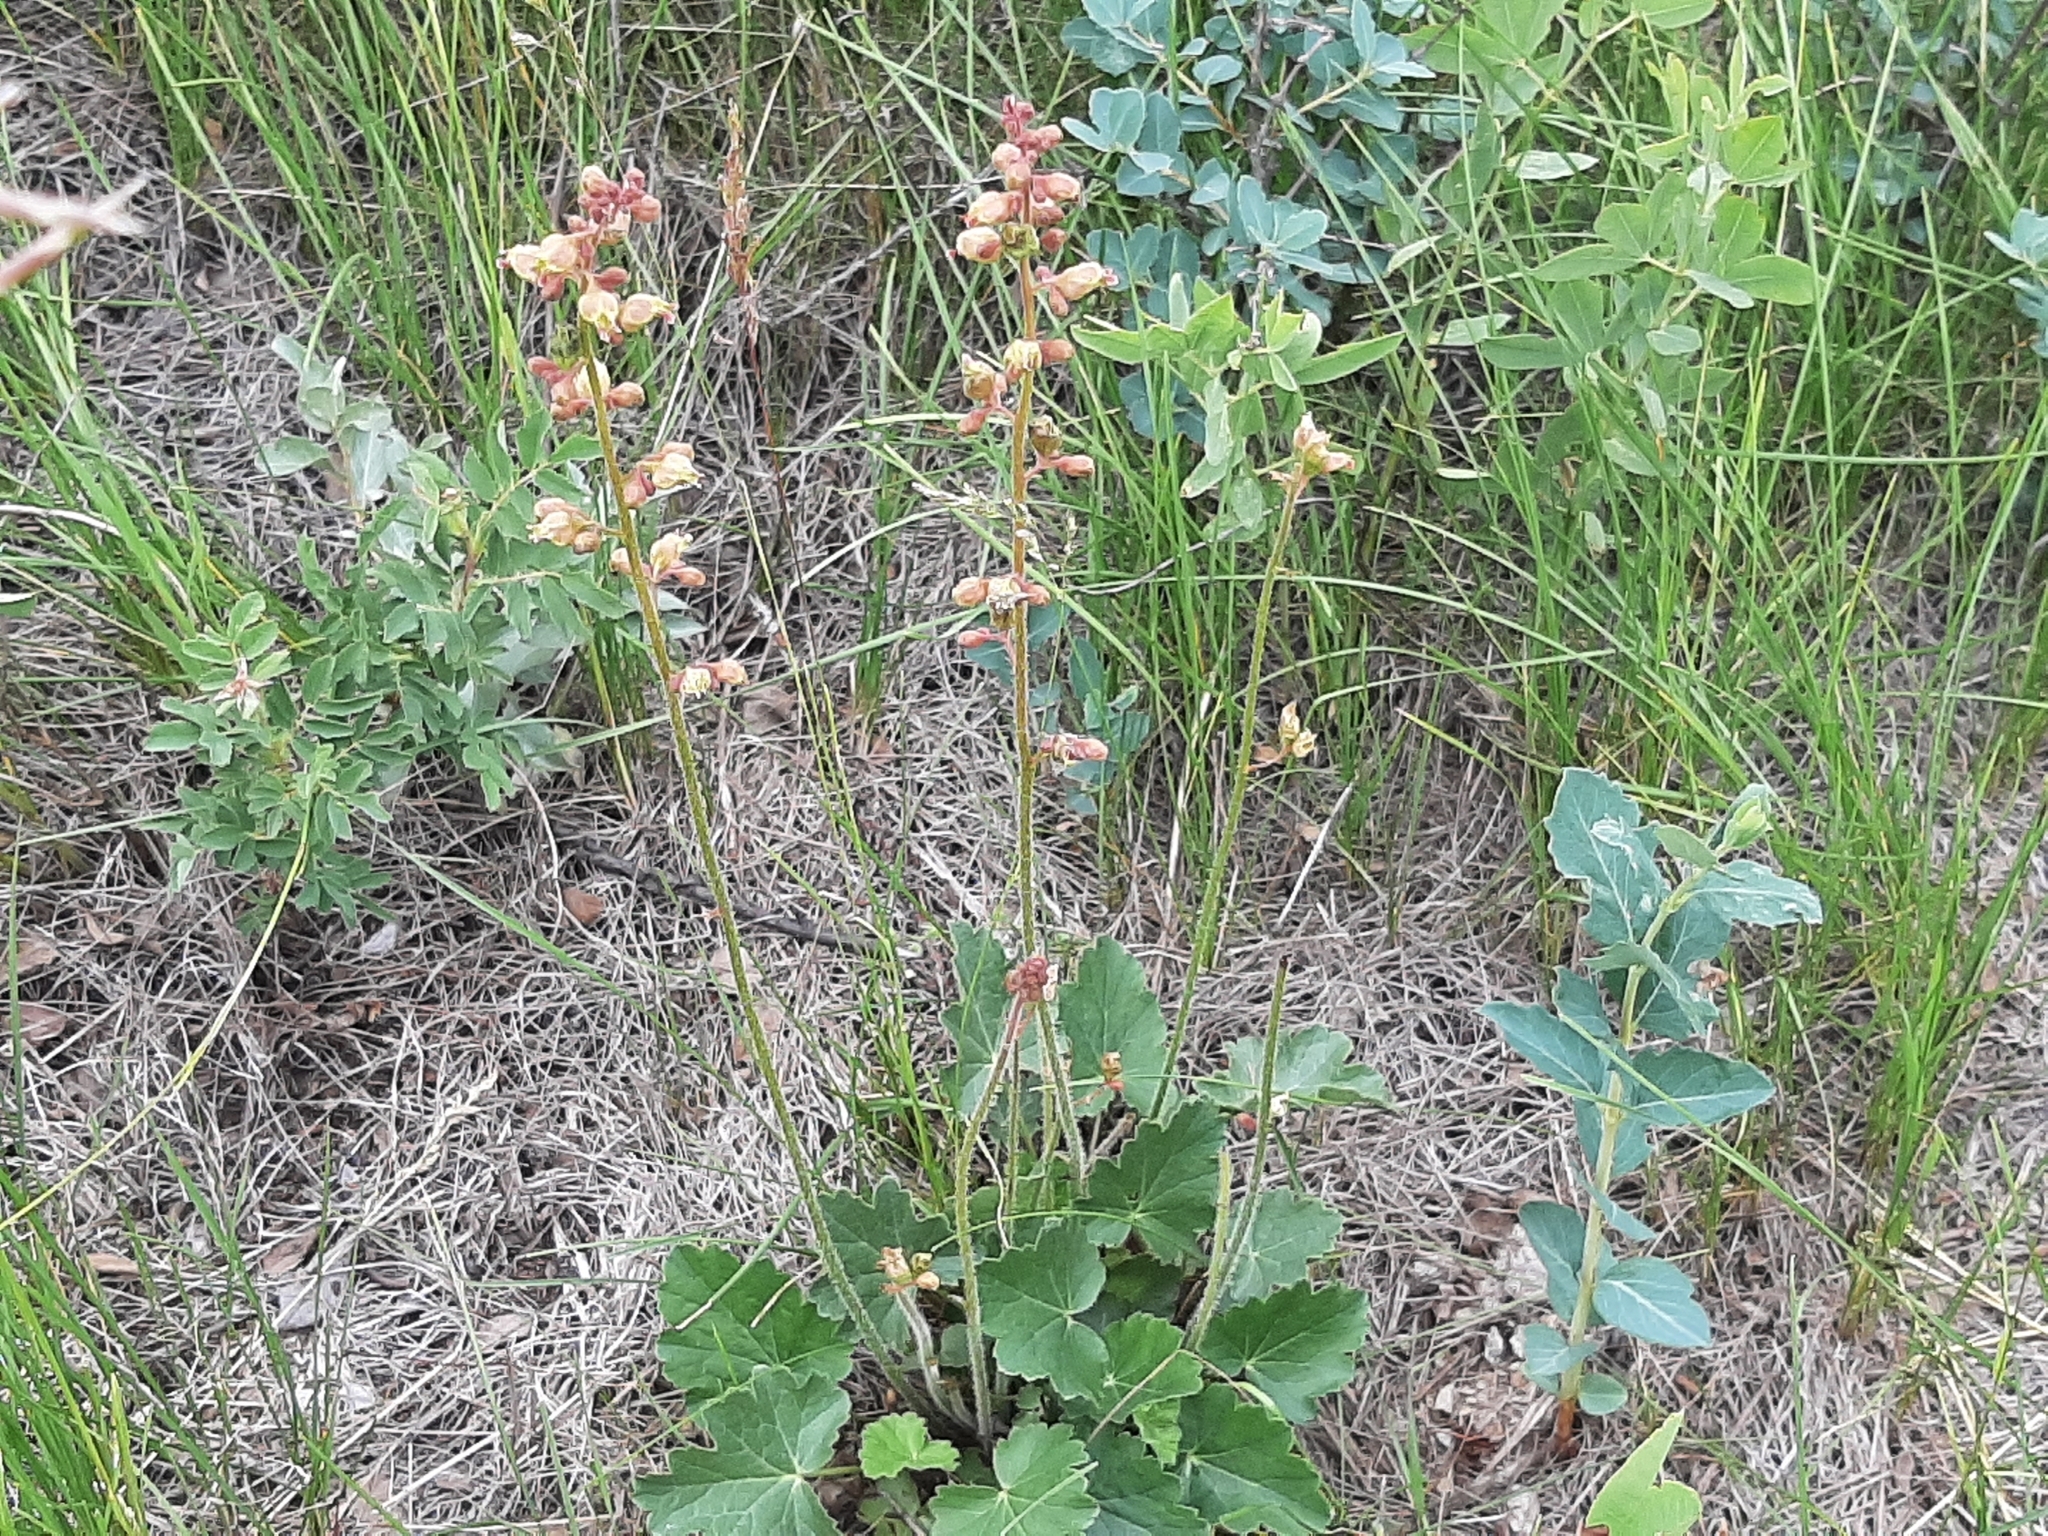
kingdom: Plantae
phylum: Tracheophyta
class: Magnoliopsida
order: Saxifragales
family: Saxifragaceae
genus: Heuchera
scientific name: Heuchera richardsonii
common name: Richardson's alumroot
